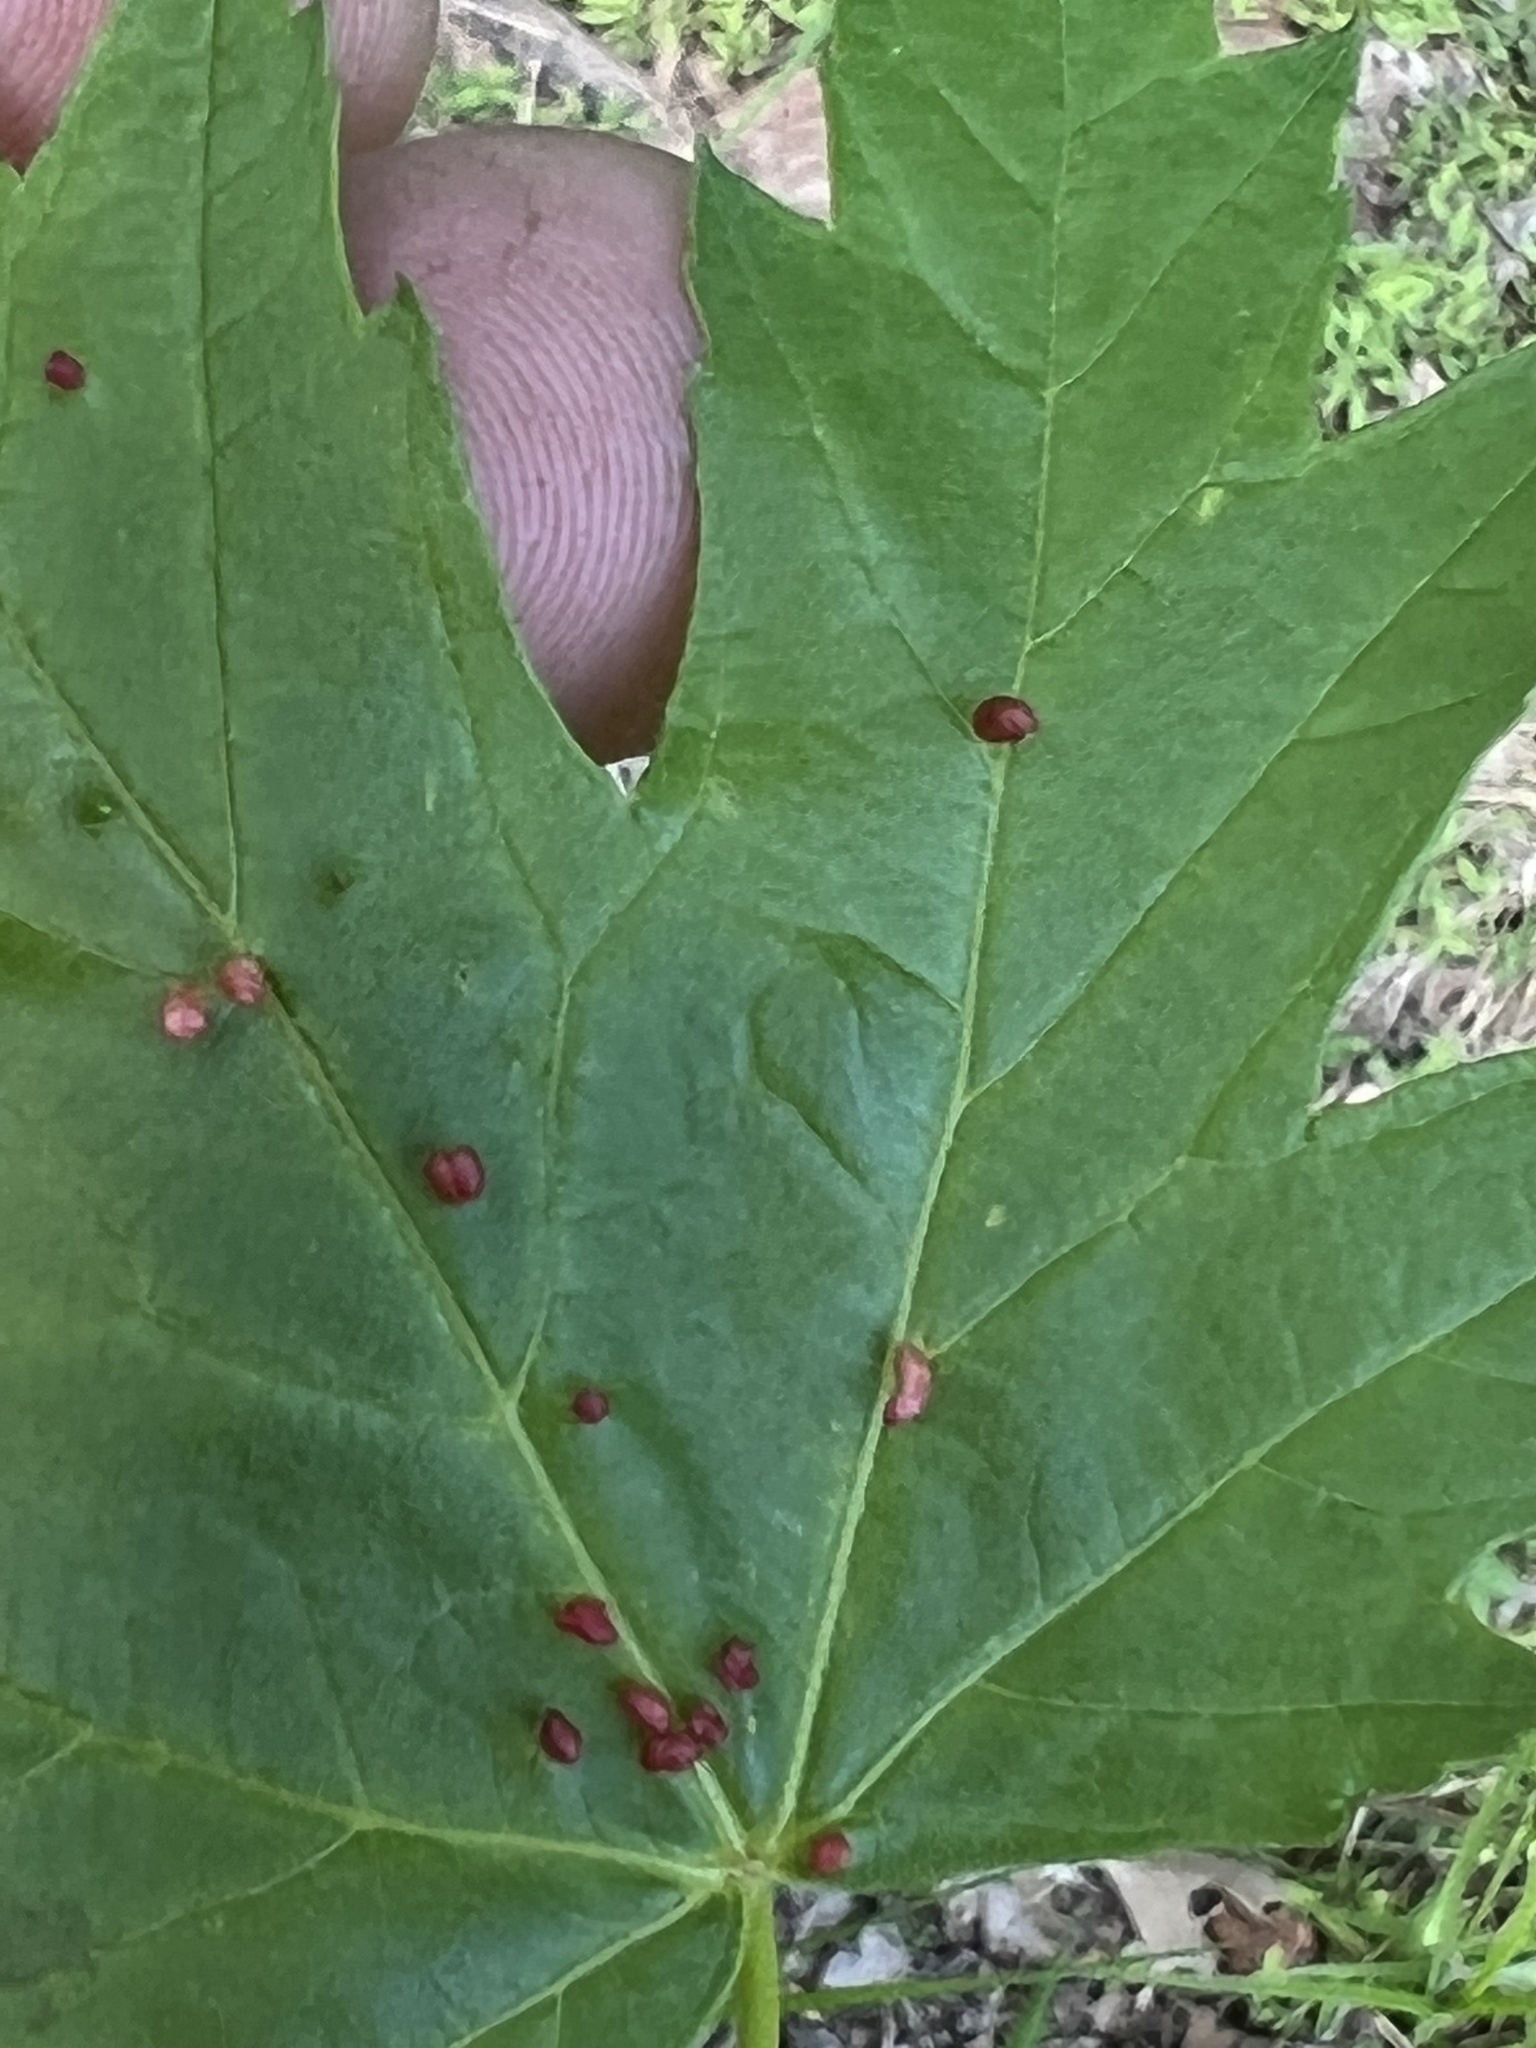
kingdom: Animalia
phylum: Arthropoda
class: Arachnida
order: Trombidiformes
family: Eriophyidae
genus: Vasates
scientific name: Vasates quadripedes
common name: Maple bladder gall mite
